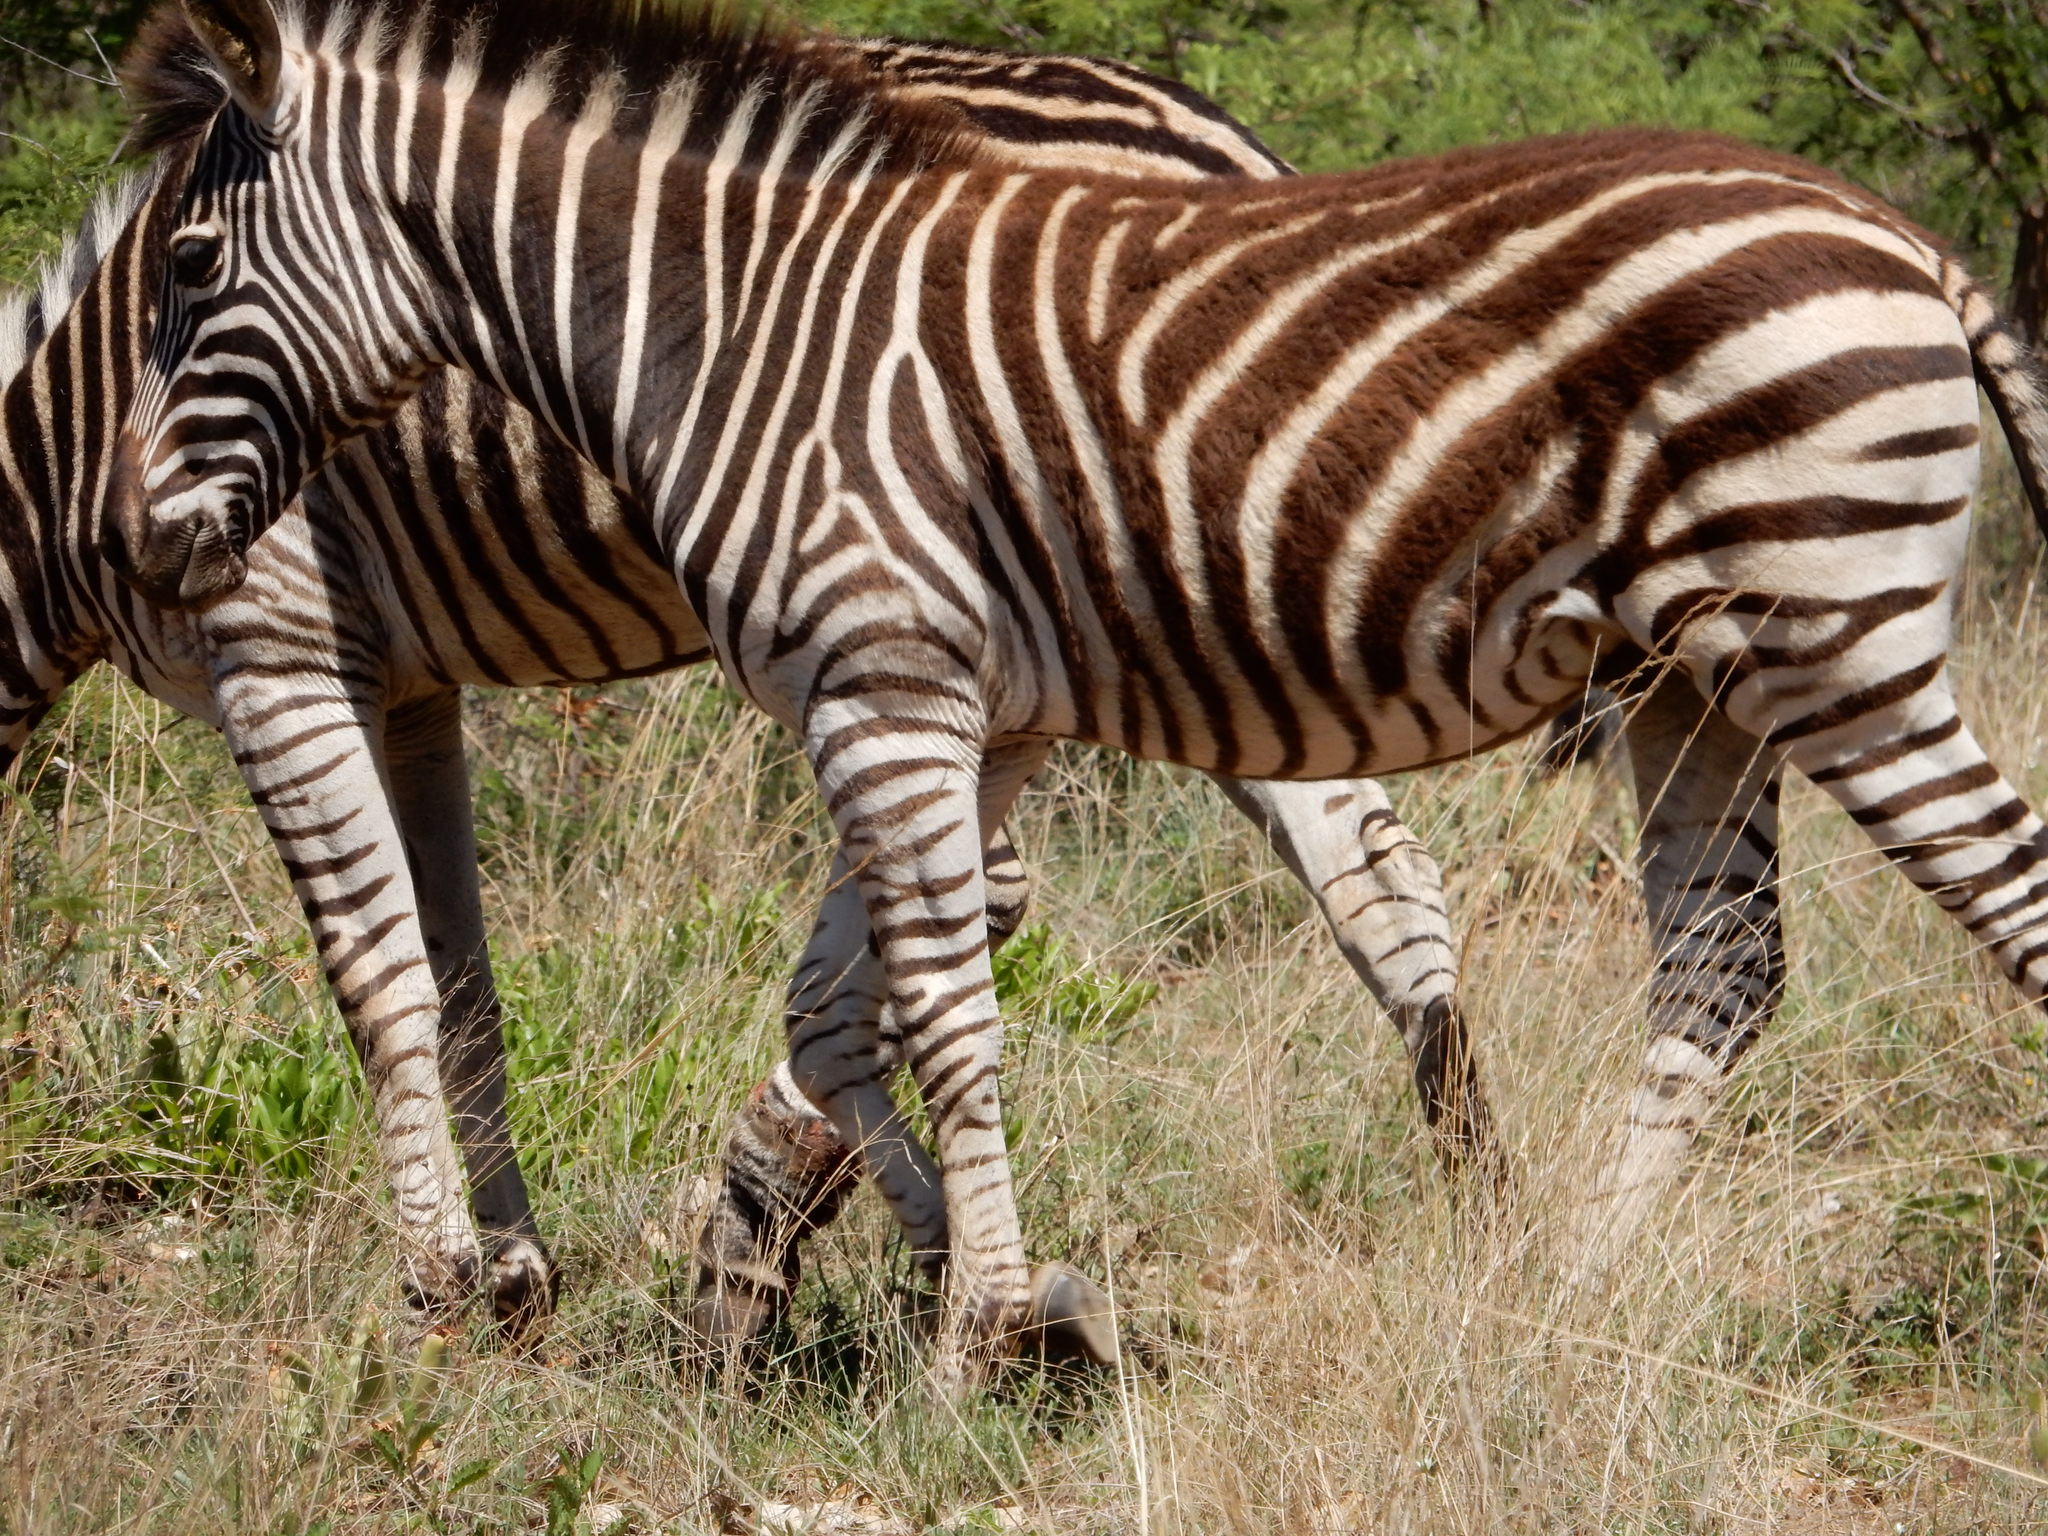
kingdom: Animalia
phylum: Chordata
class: Mammalia
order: Perissodactyla
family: Equidae
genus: Equus
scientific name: Equus quagga
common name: Plains zebra
